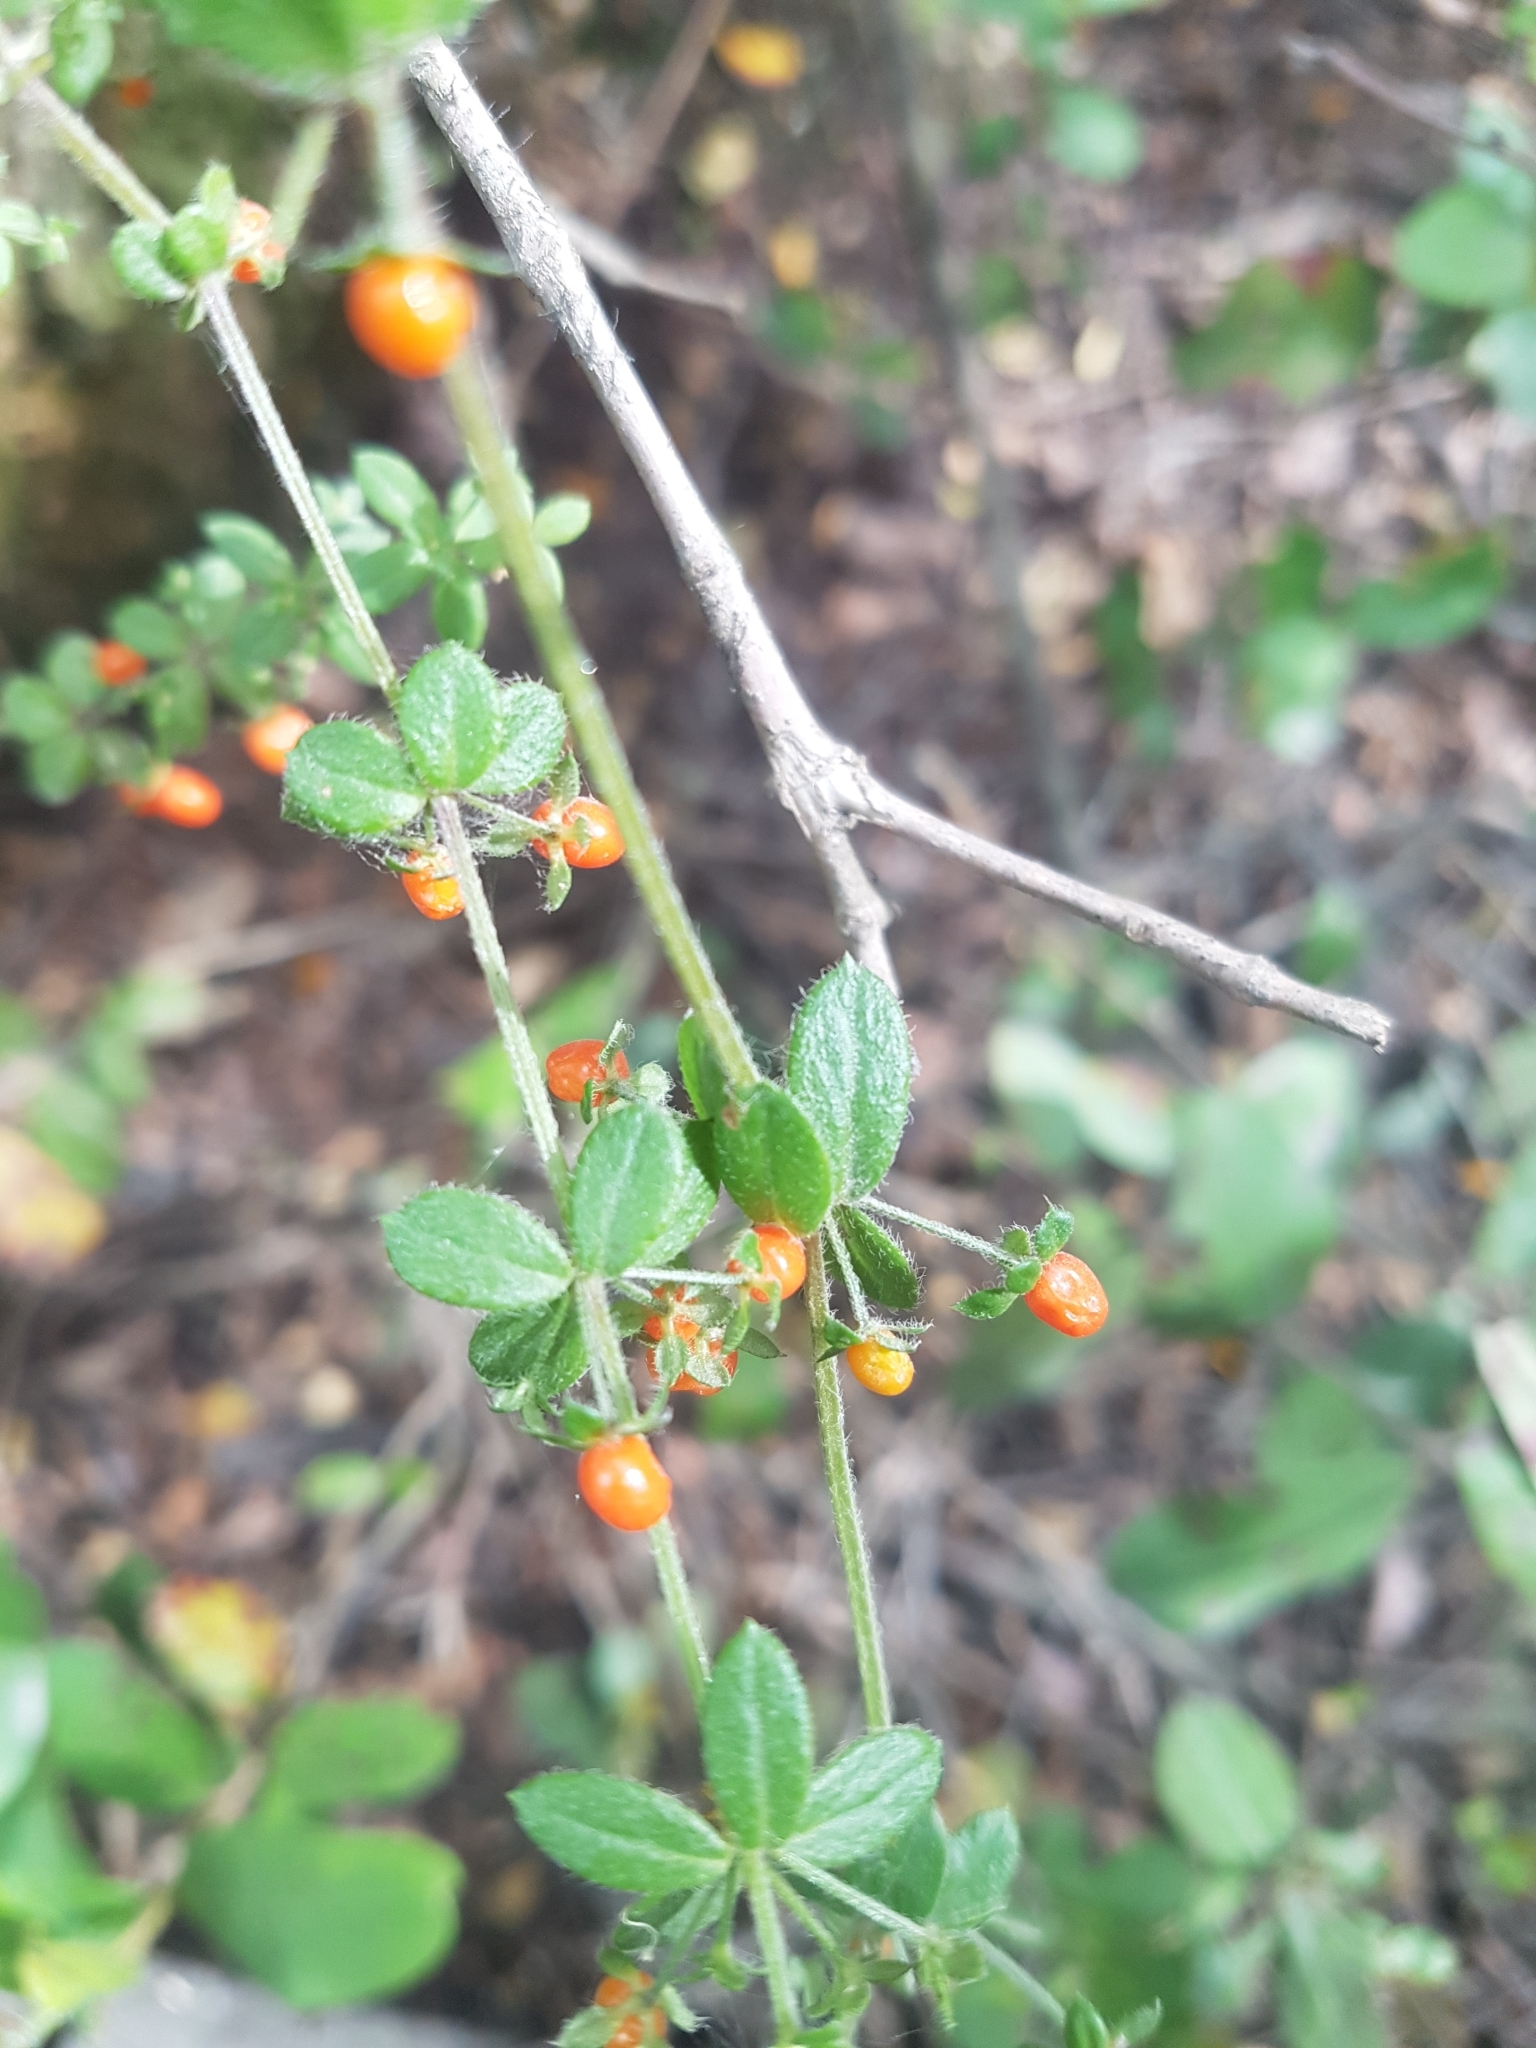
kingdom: Plantae
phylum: Tracheophyta
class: Magnoliopsida
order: Gentianales
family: Rubiaceae
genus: Galium
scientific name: Galium hypocarpium
